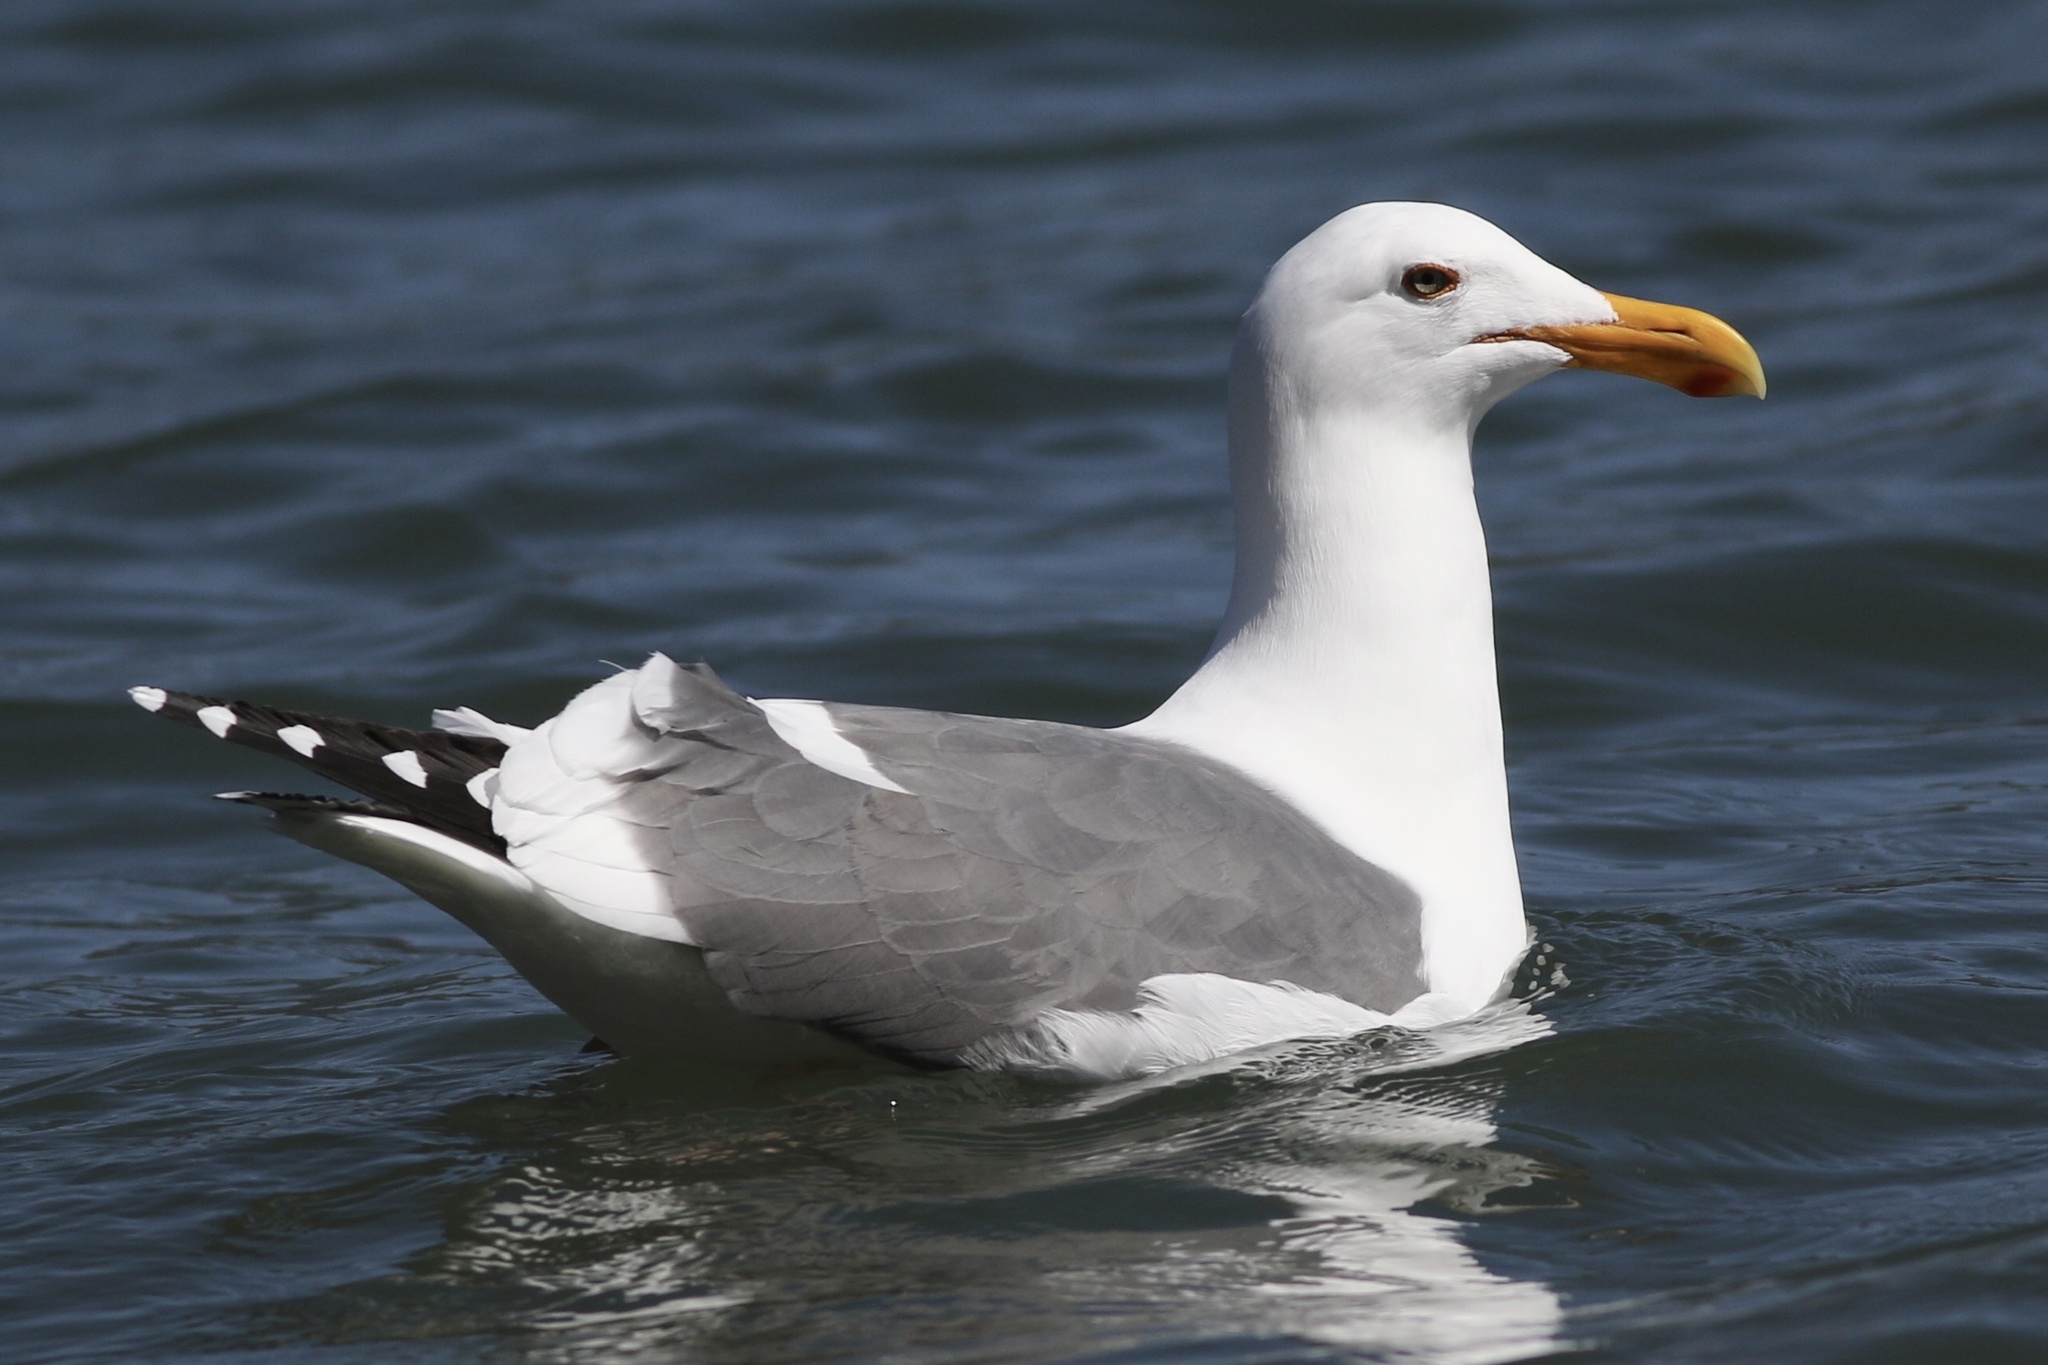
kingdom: Animalia
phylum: Chordata
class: Aves
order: Charadriiformes
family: Laridae
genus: Larus
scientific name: Larus occidentalis
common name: Western gull
